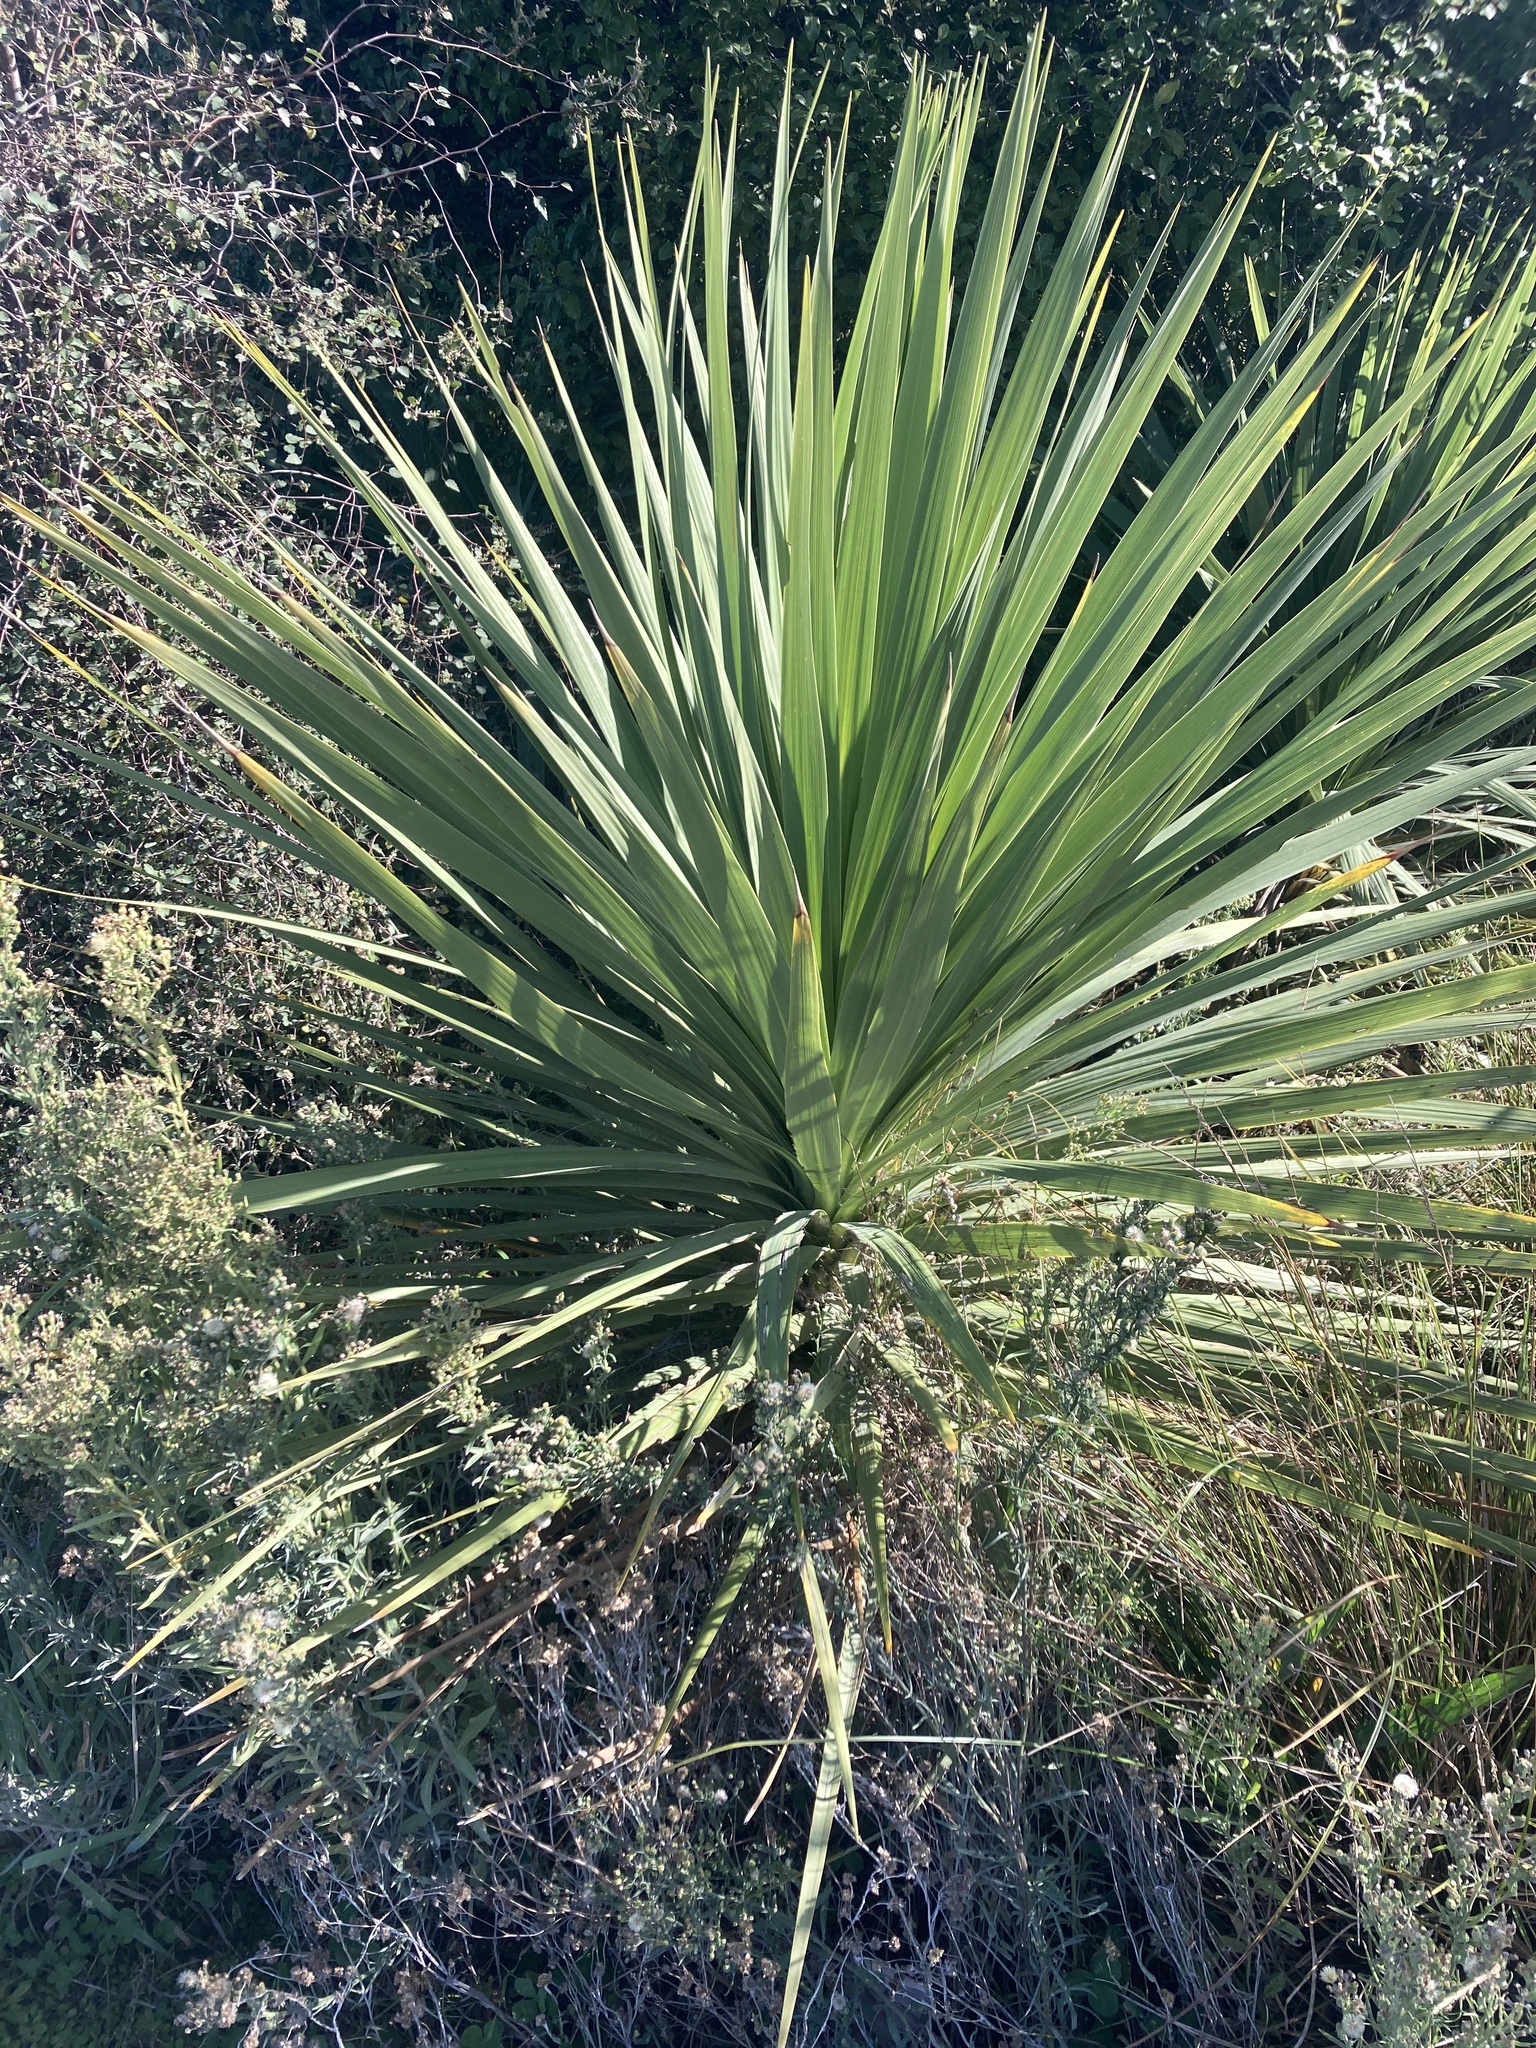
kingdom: Plantae
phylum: Tracheophyta
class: Liliopsida
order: Asparagales
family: Asparagaceae
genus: Cordyline
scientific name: Cordyline australis
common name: Cabbage-palm
